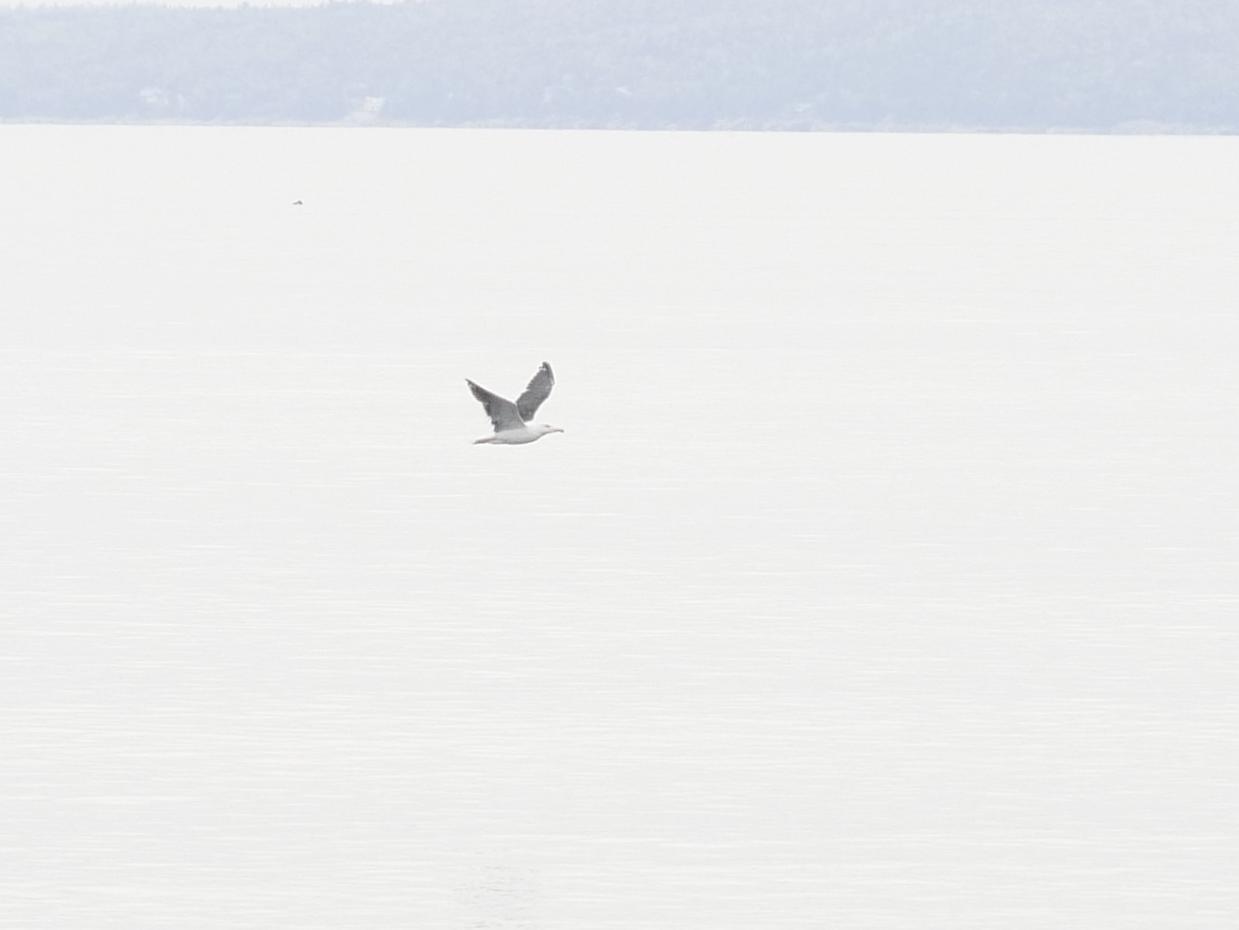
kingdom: Animalia
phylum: Chordata
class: Aves
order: Charadriiformes
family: Laridae
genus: Larus
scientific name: Larus marinus
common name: Great black-backed gull
